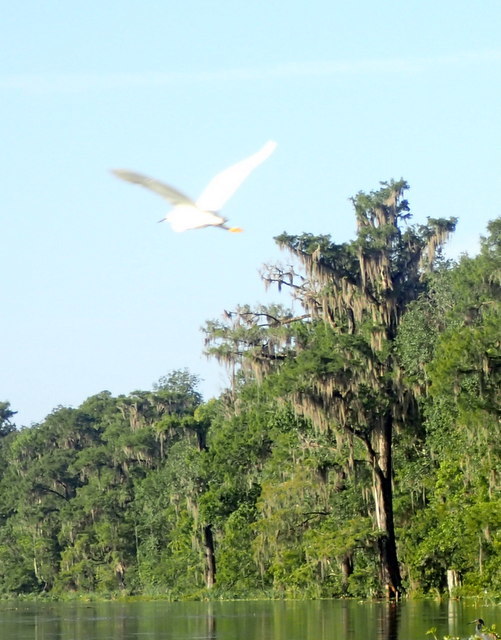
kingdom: Animalia
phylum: Chordata
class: Aves
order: Pelecaniformes
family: Ardeidae
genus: Egretta
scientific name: Egretta thula
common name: Snowy egret
